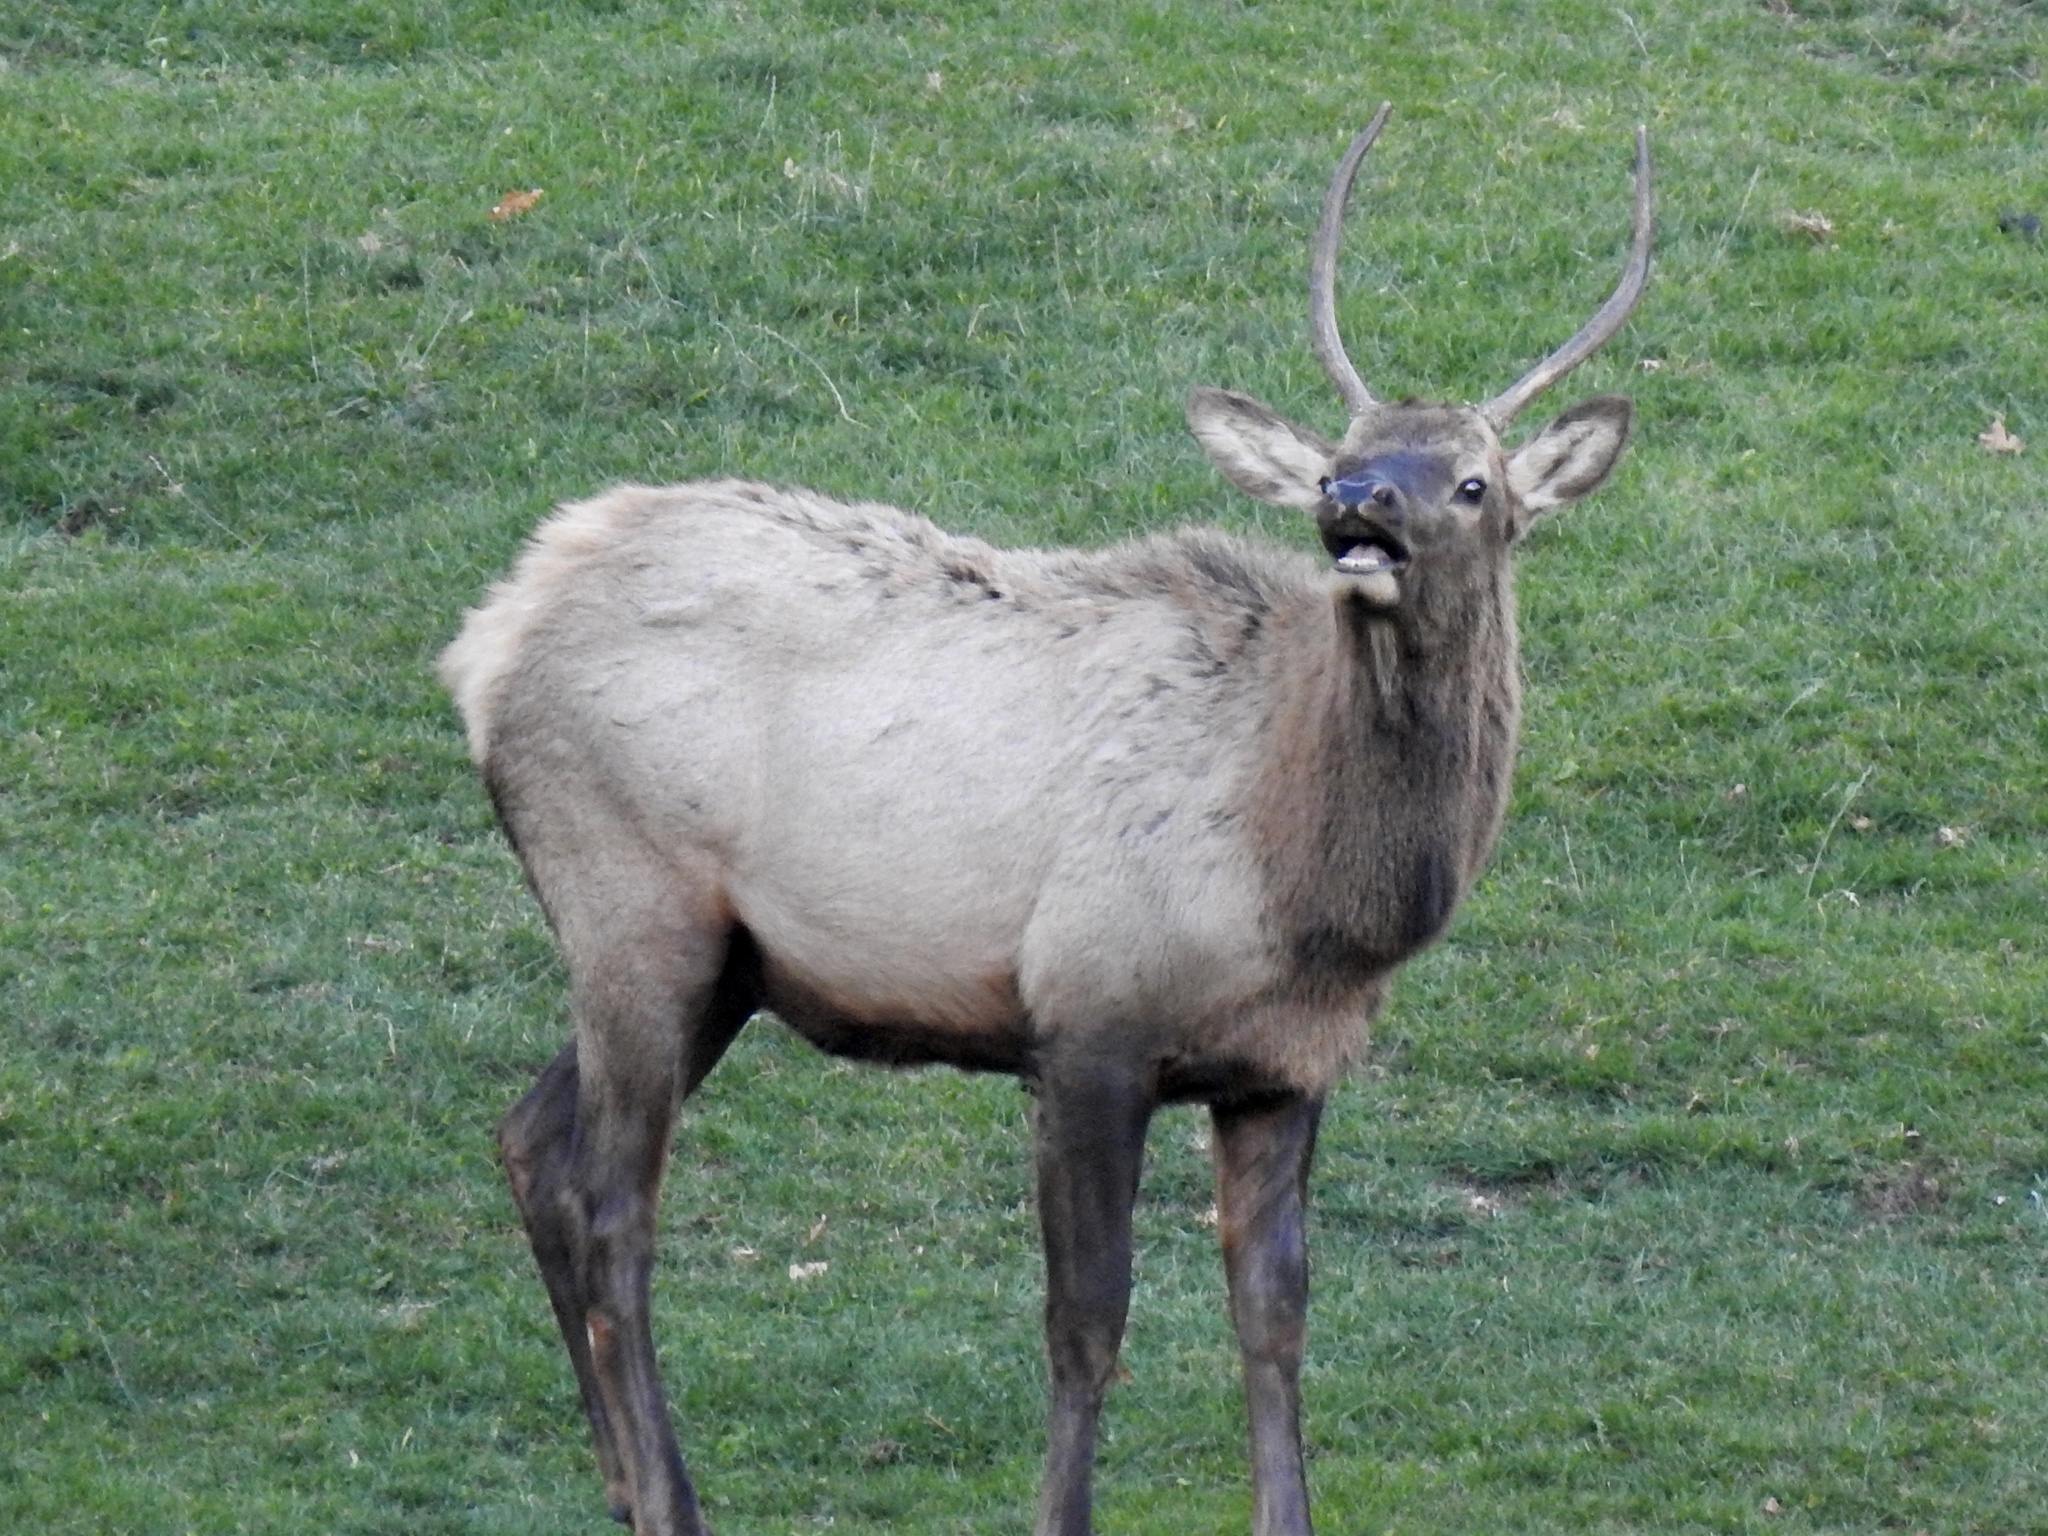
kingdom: Animalia
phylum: Chordata
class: Mammalia
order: Artiodactyla
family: Cervidae
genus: Cervus
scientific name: Cervus elaphus
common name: Red deer
